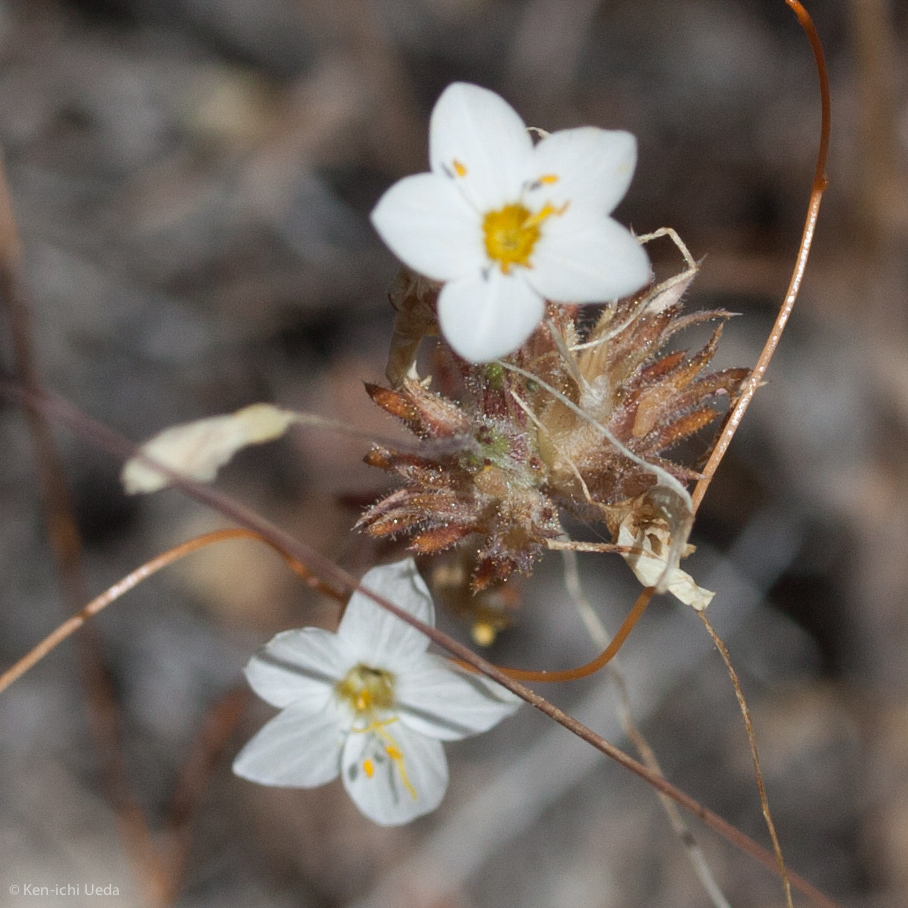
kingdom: Plantae
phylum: Tracheophyta
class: Magnoliopsida
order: Ericales
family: Polemoniaceae
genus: Leptosiphon
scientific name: Leptosiphon parviflorus
